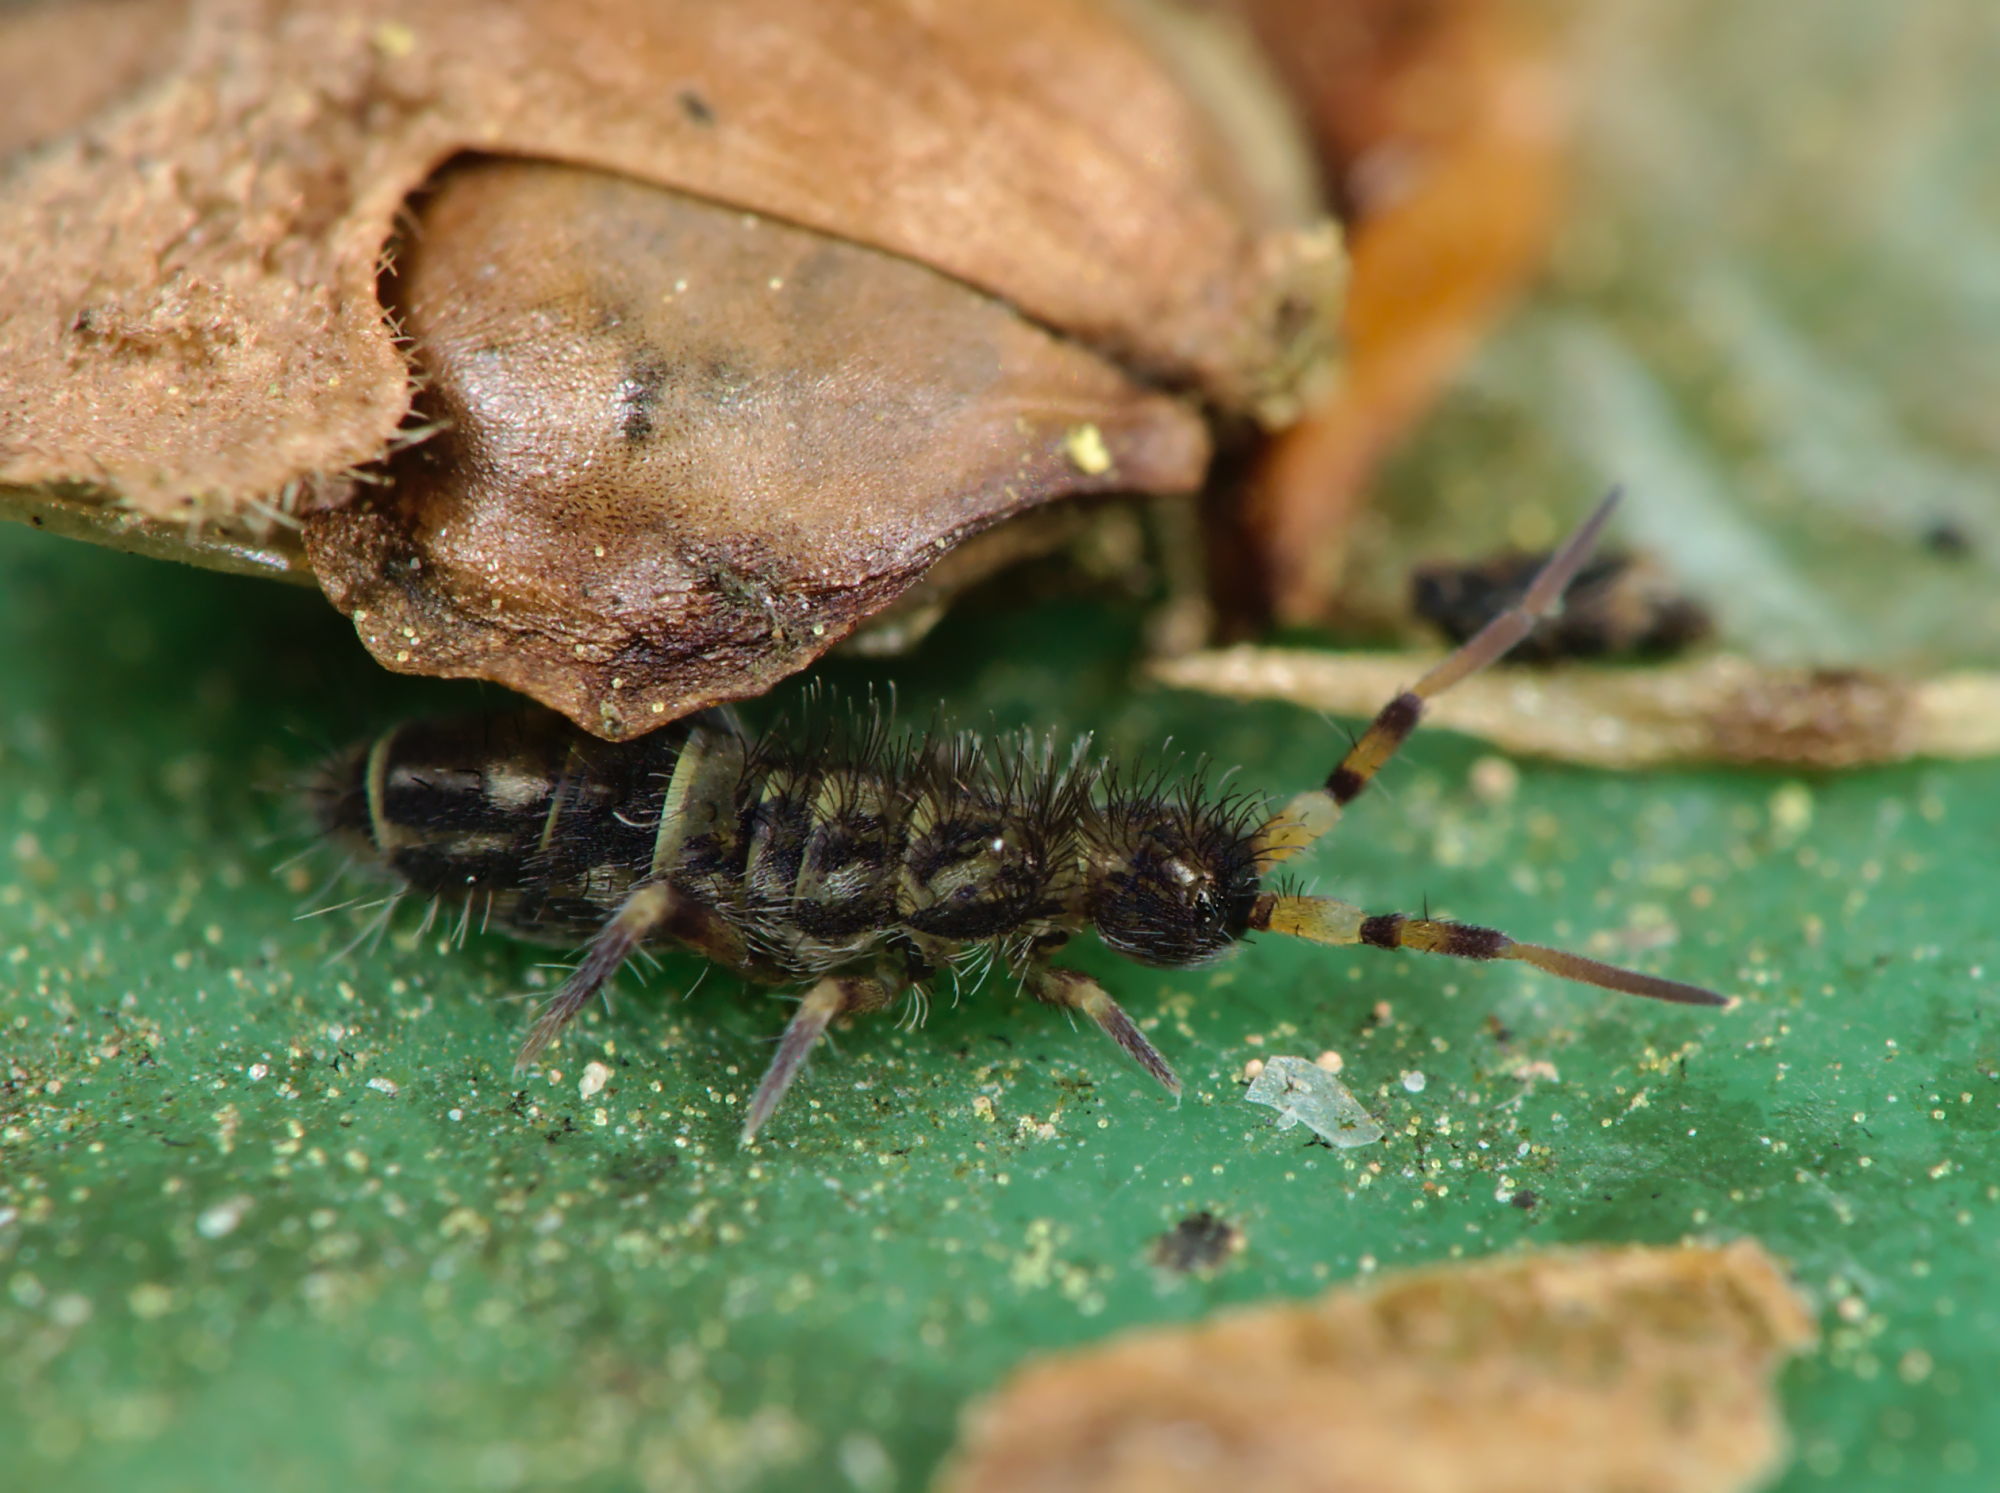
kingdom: Animalia
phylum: Arthropoda
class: Collembola
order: Entomobryomorpha
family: Orchesellidae
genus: Orchesella
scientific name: Orchesella cincta
